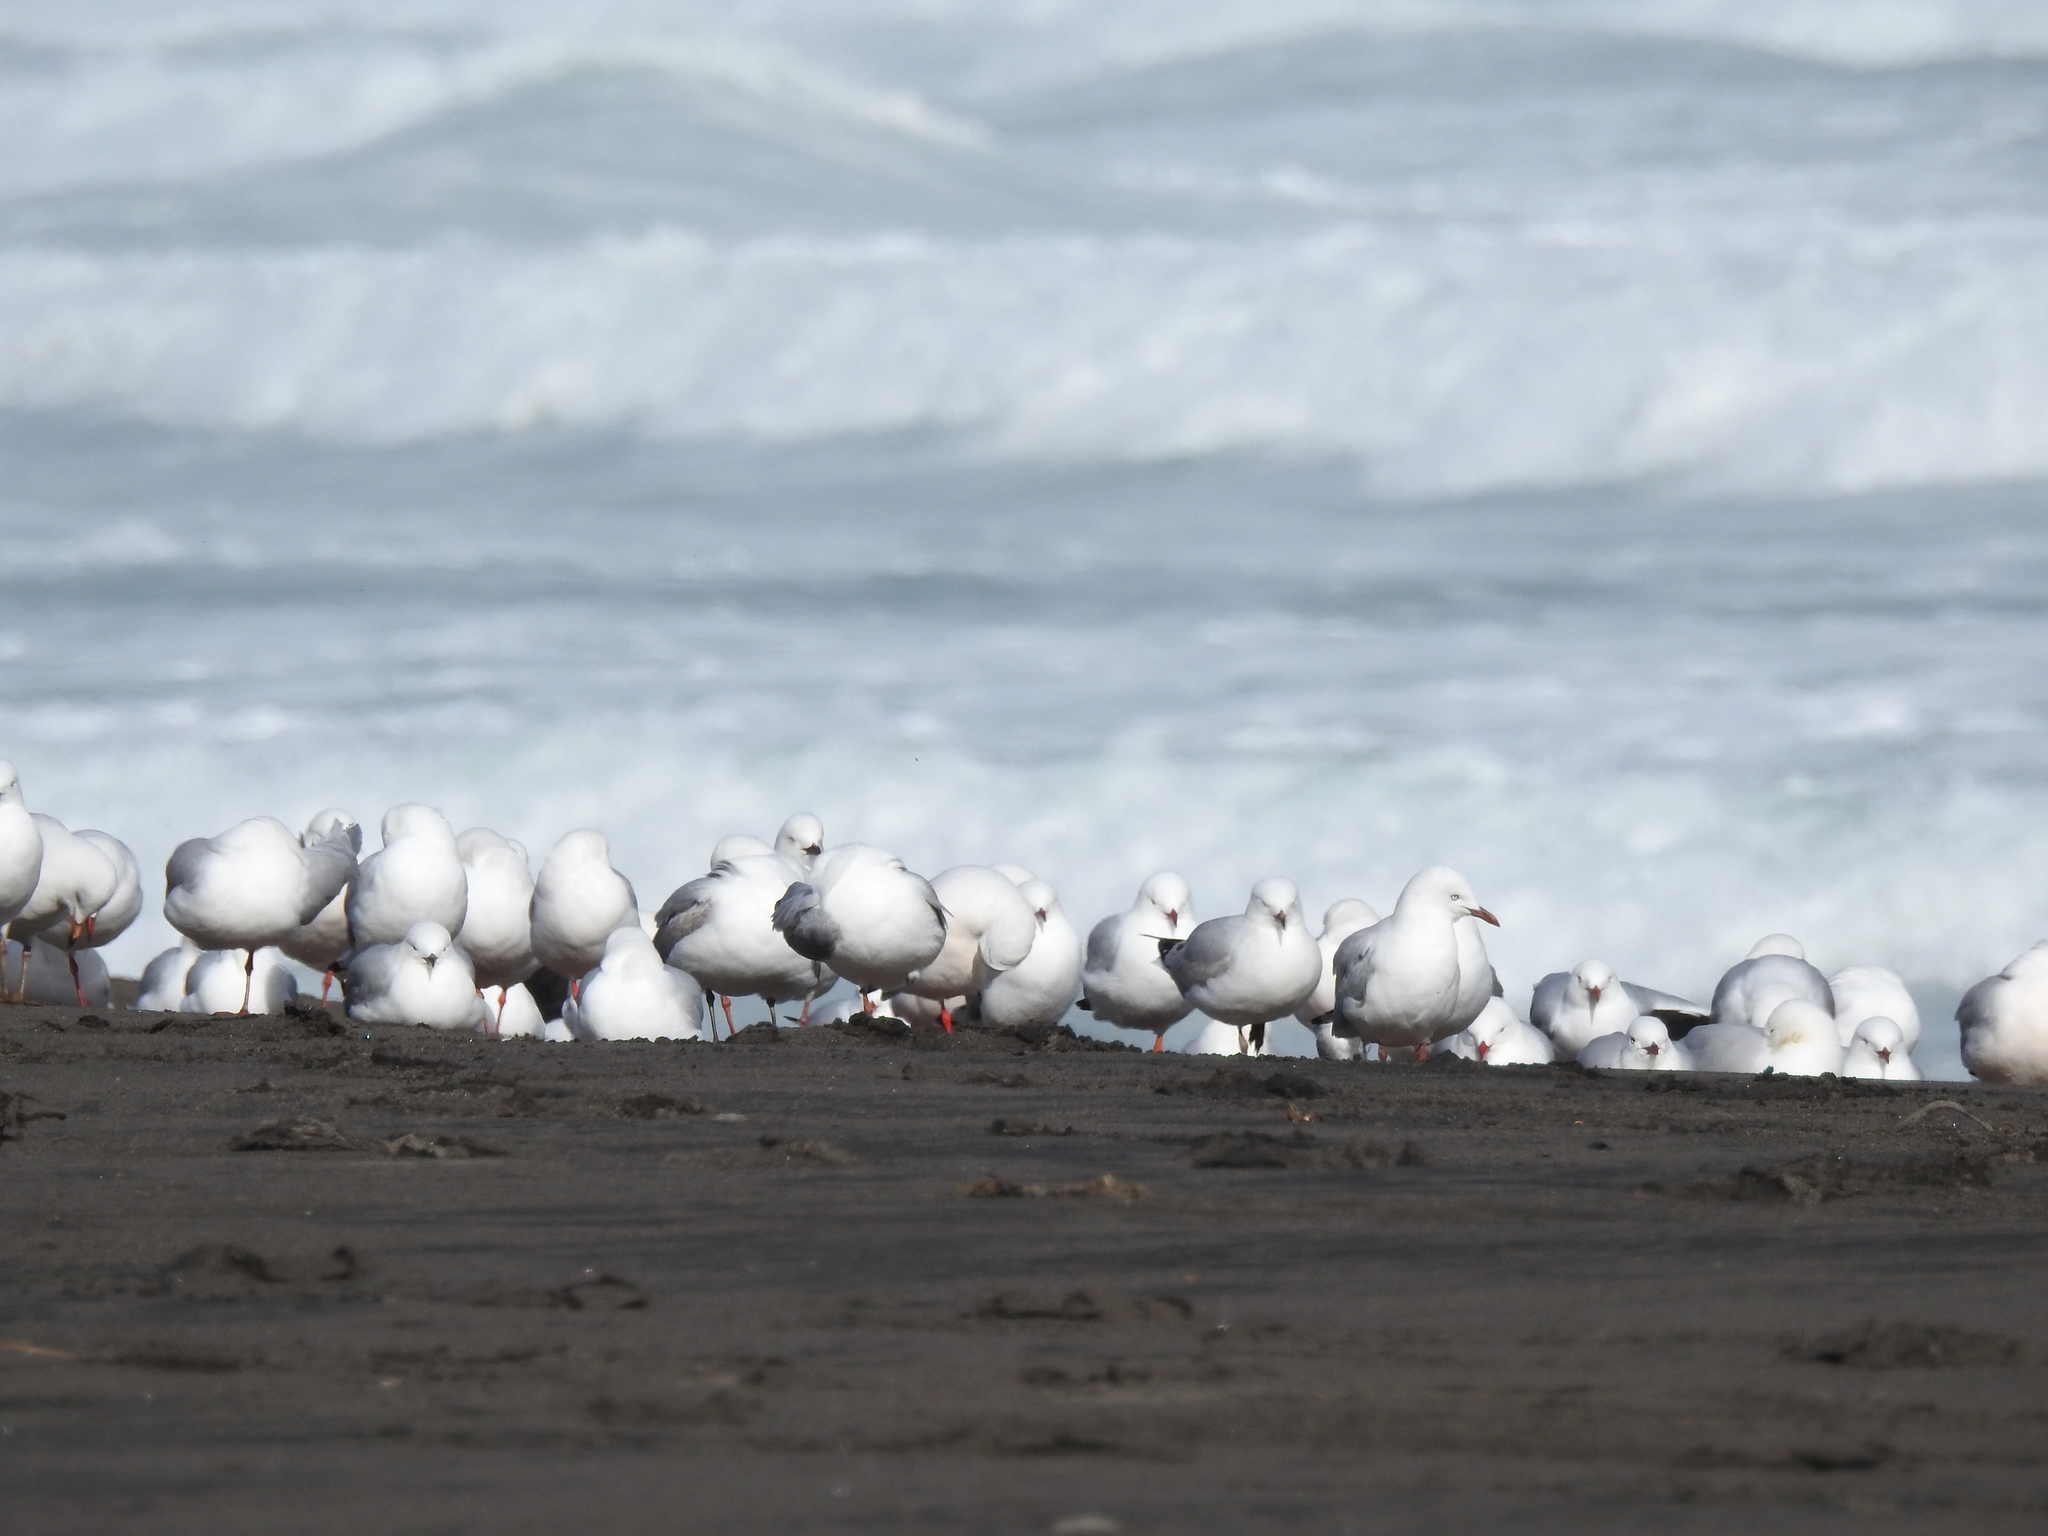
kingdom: Animalia
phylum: Chordata
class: Aves
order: Charadriiformes
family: Laridae
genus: Chroicocephalus
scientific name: Chroicocephalus novaehollandiae
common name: Silver gull
